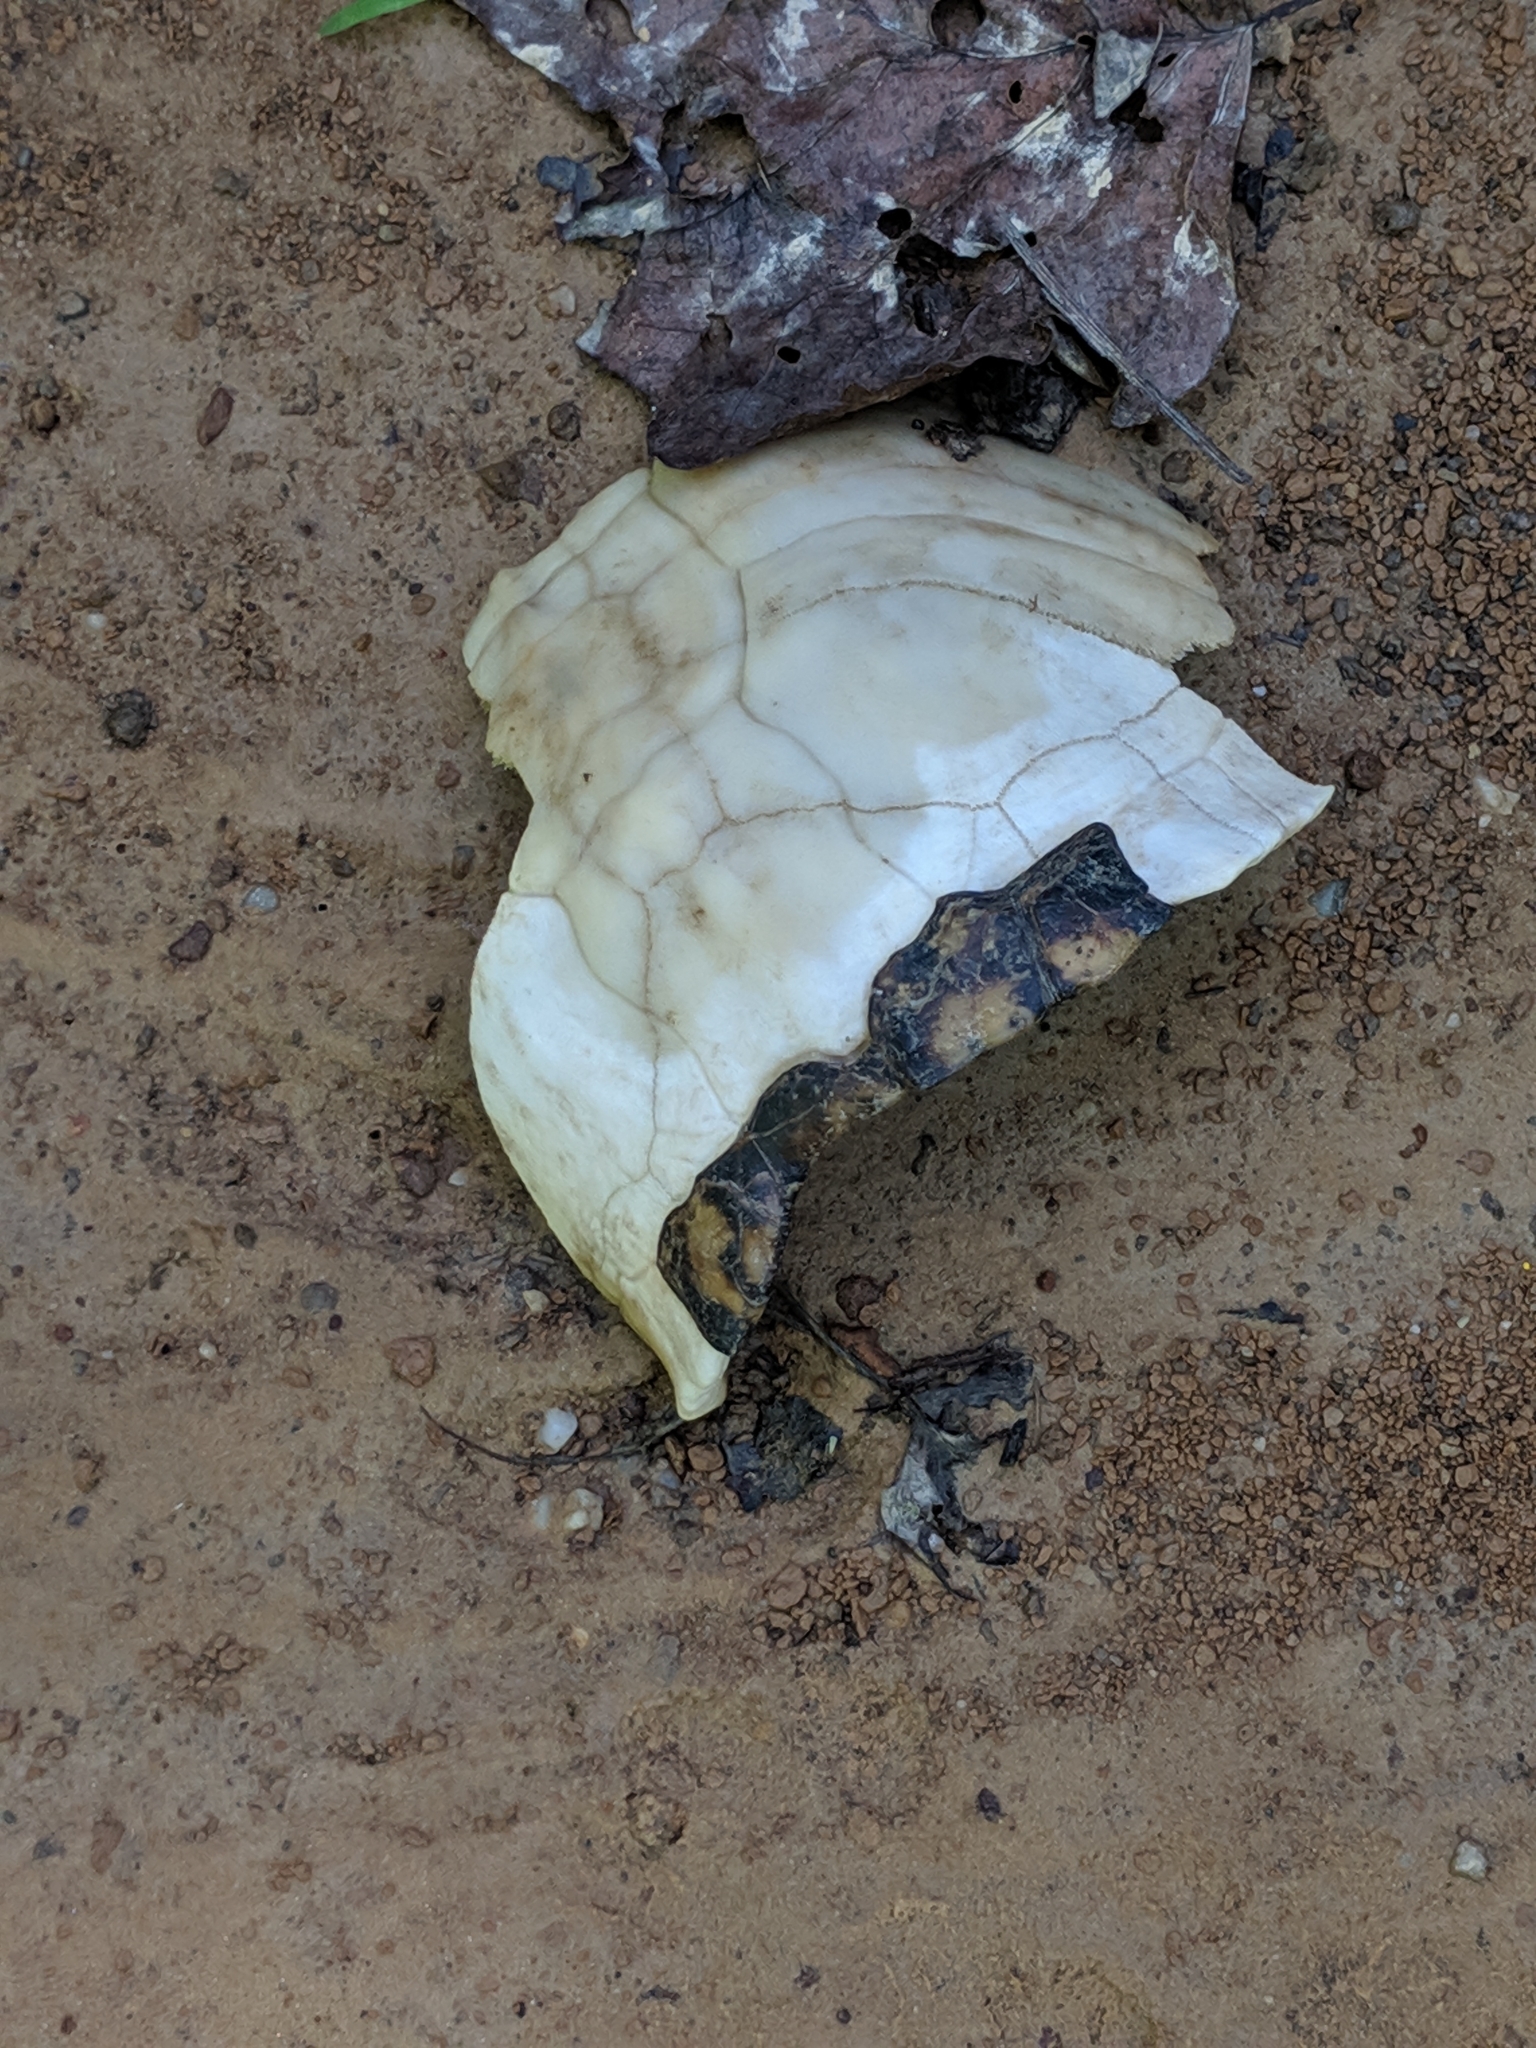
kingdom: Animalia
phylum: Chordata
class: Testudines
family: Emydidae
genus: Terrapene
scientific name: Terrapene carolina
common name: Common box turtle
